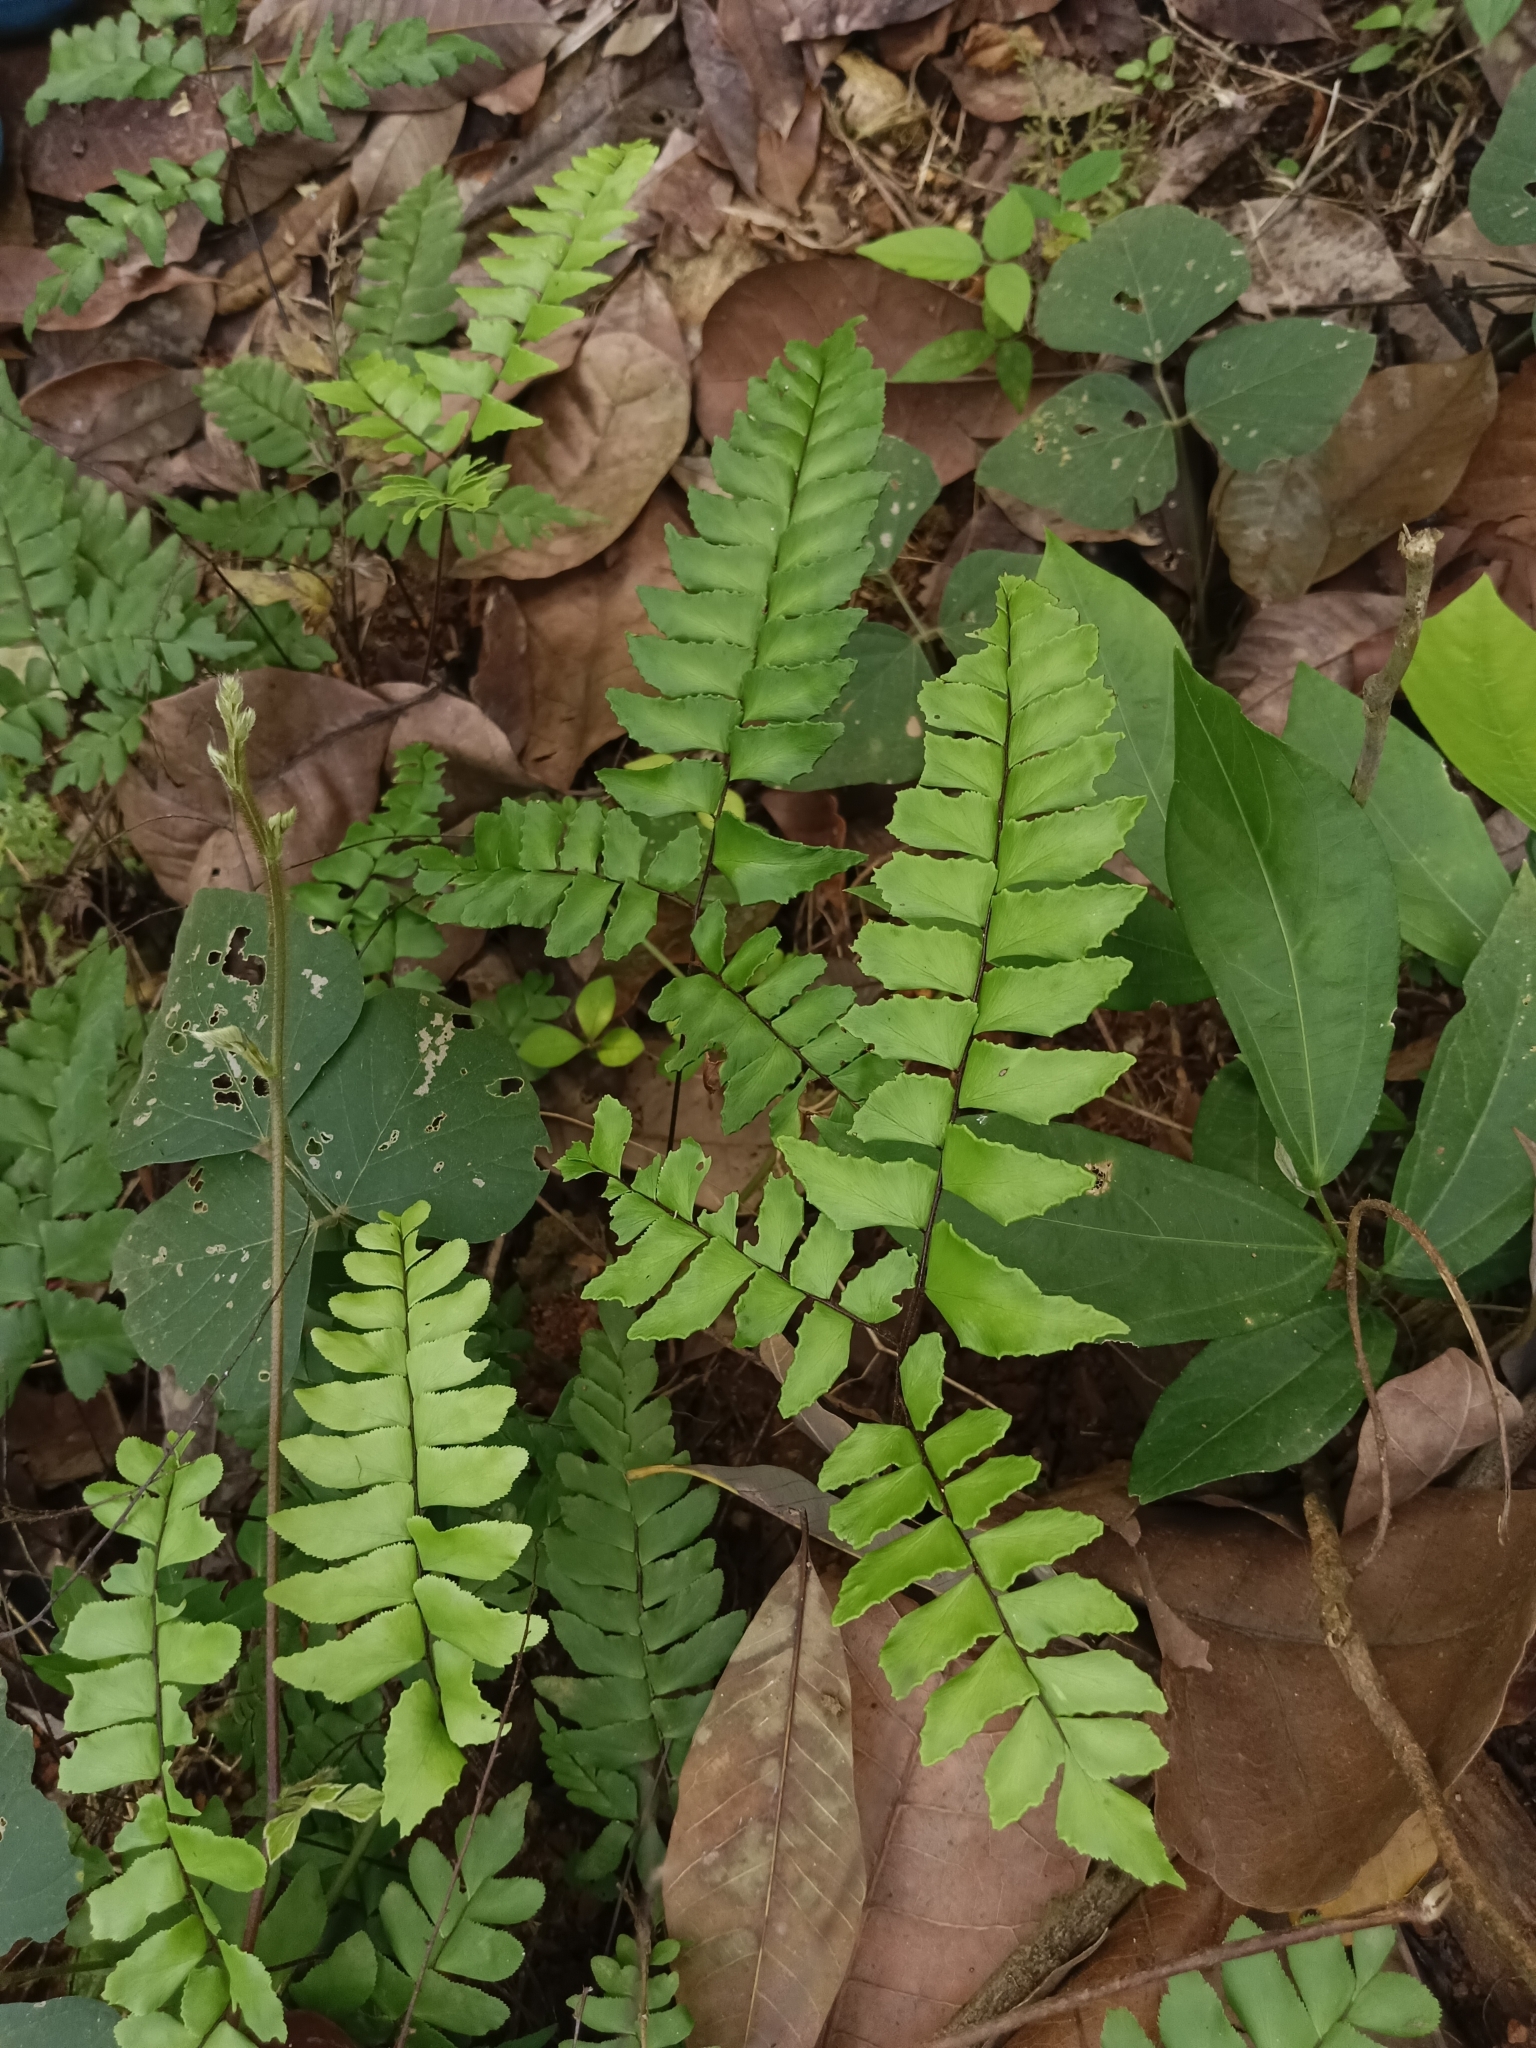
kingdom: Plantae
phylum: Tracheophyta
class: Polypodiopsida
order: Polypodiales
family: Pteridaceae
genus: Adiantum
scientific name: Adiantum latifolium
